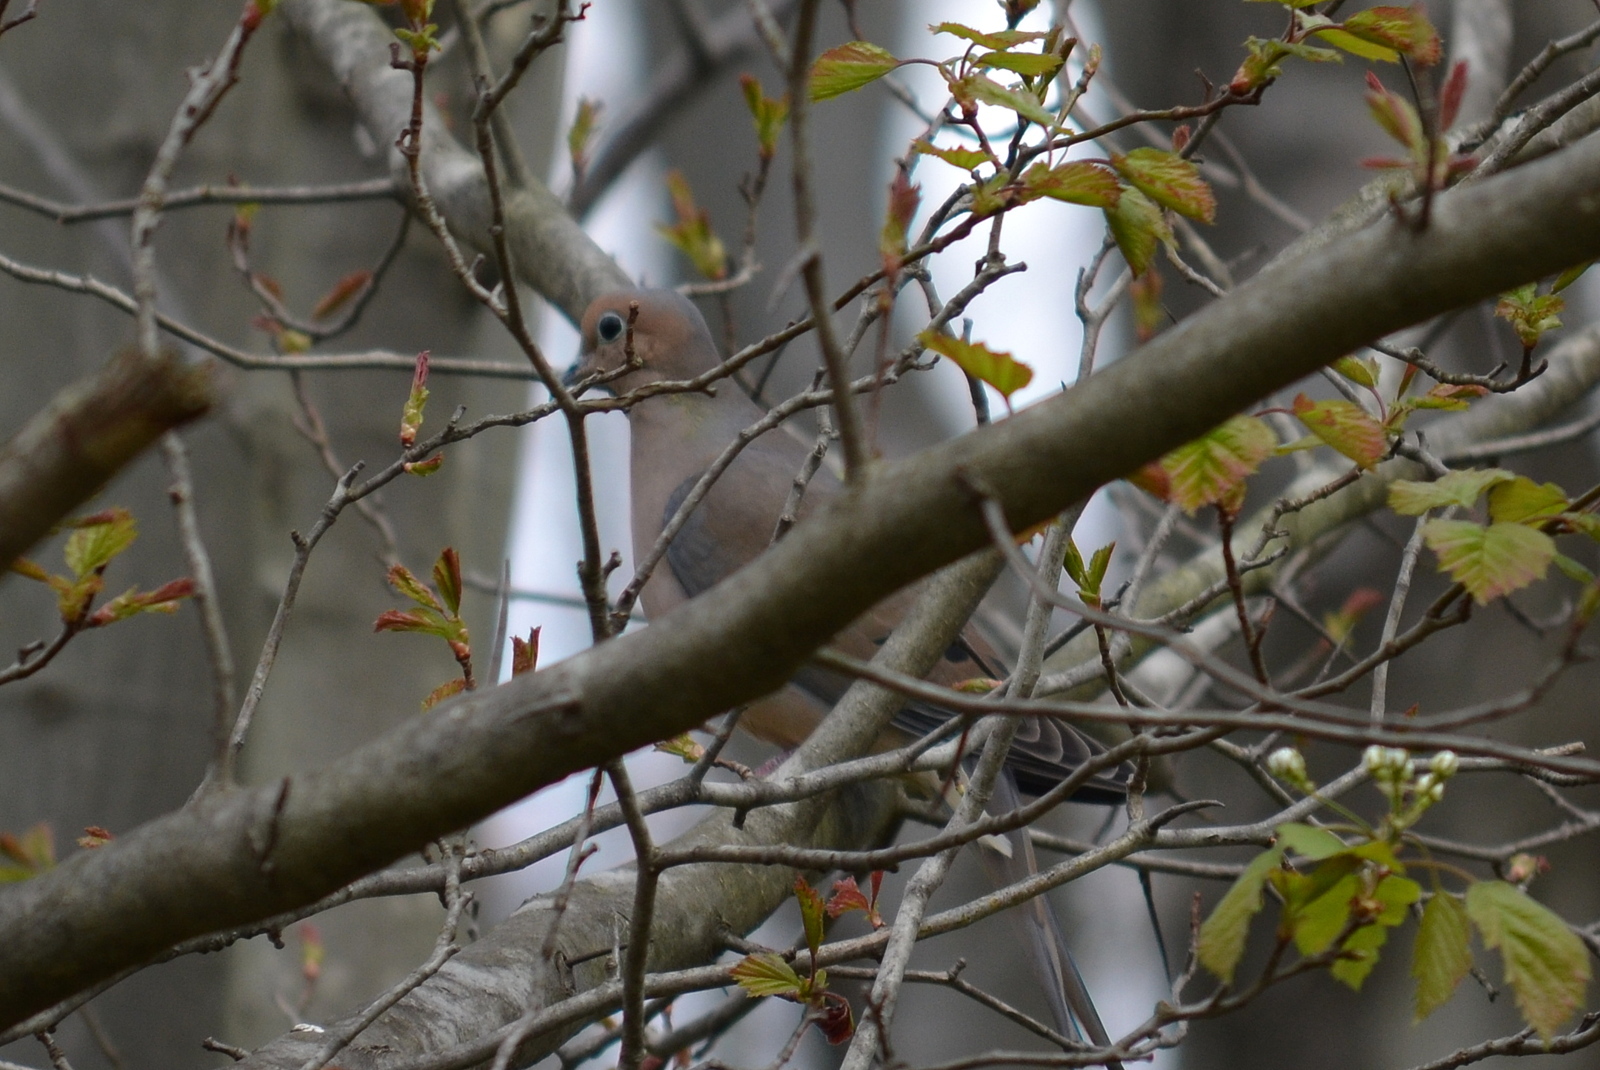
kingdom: Animalia
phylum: Chordata
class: Aves
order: Columbiformes
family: Columbidae
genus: Zenaida
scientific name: Zenaida macroura
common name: Mourning dove
